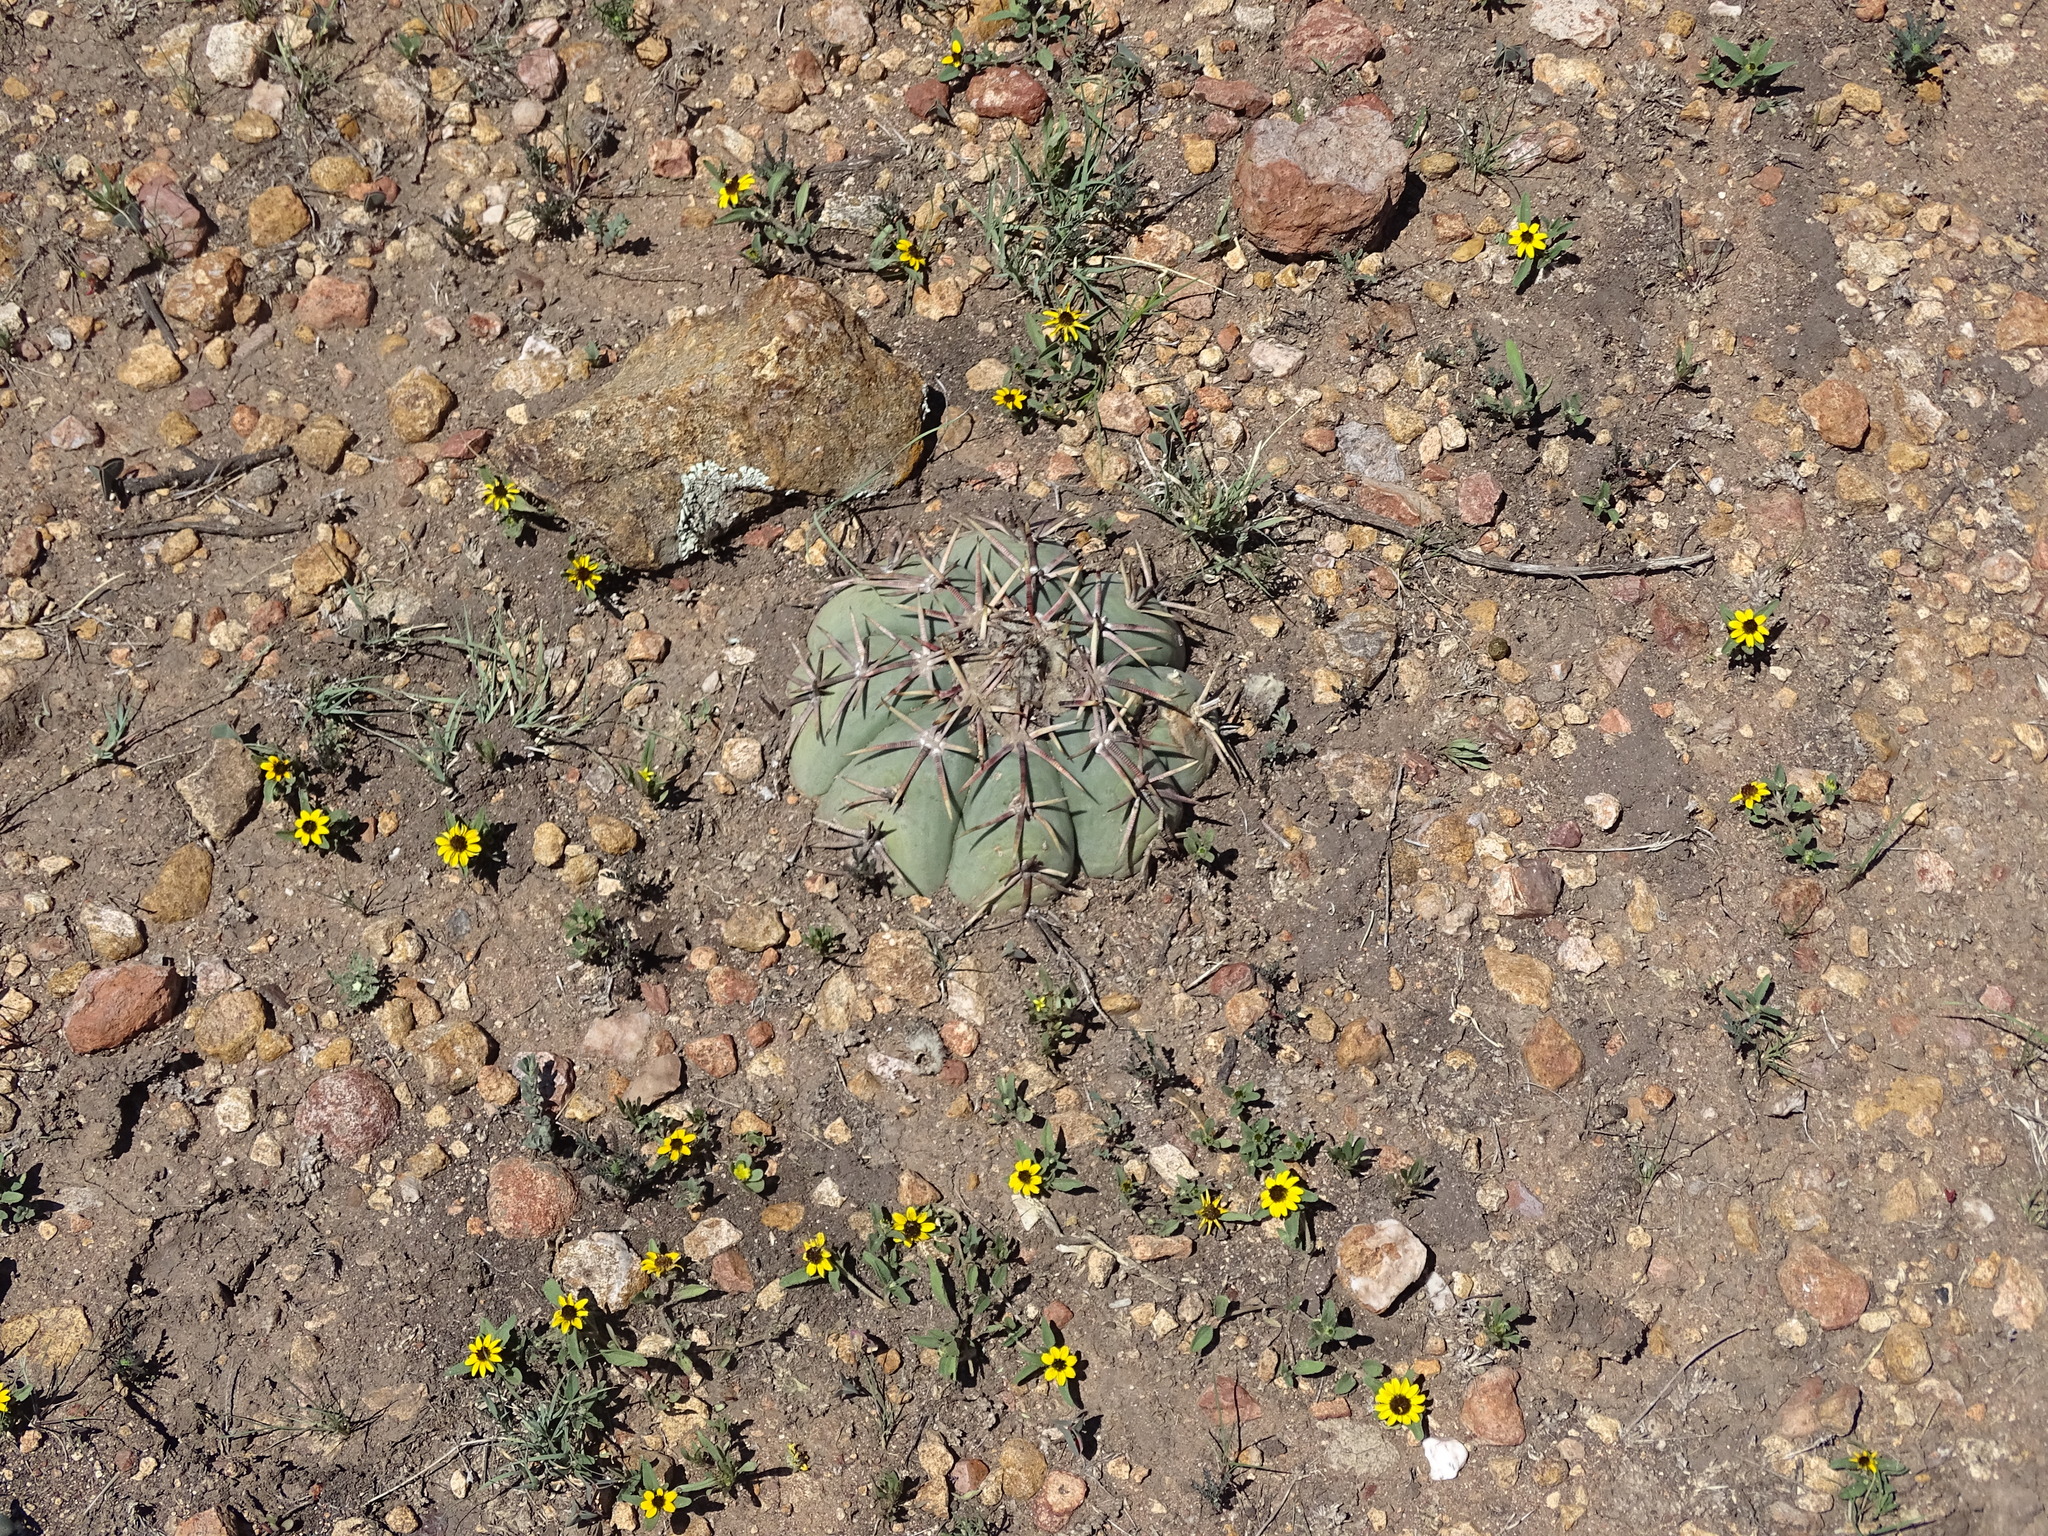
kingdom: Plantae
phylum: Tracheophyta
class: Magnoliopsida
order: Caryophyllales
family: Cactaceae
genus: Echinocactus
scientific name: Echinocactus horizonthalonius
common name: Devilshead
